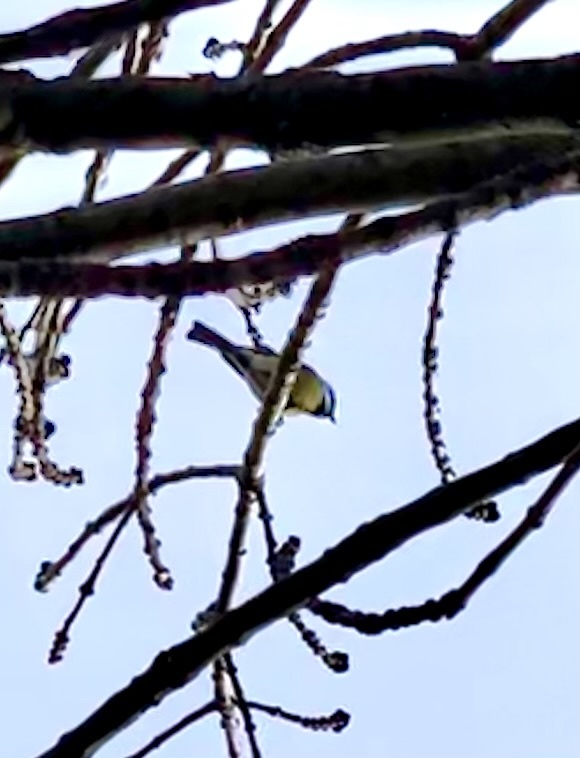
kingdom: Animalia
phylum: Chordata
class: Aves
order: Passeriformes
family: Paridae
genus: Parus
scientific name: Parus major
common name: Great tit
